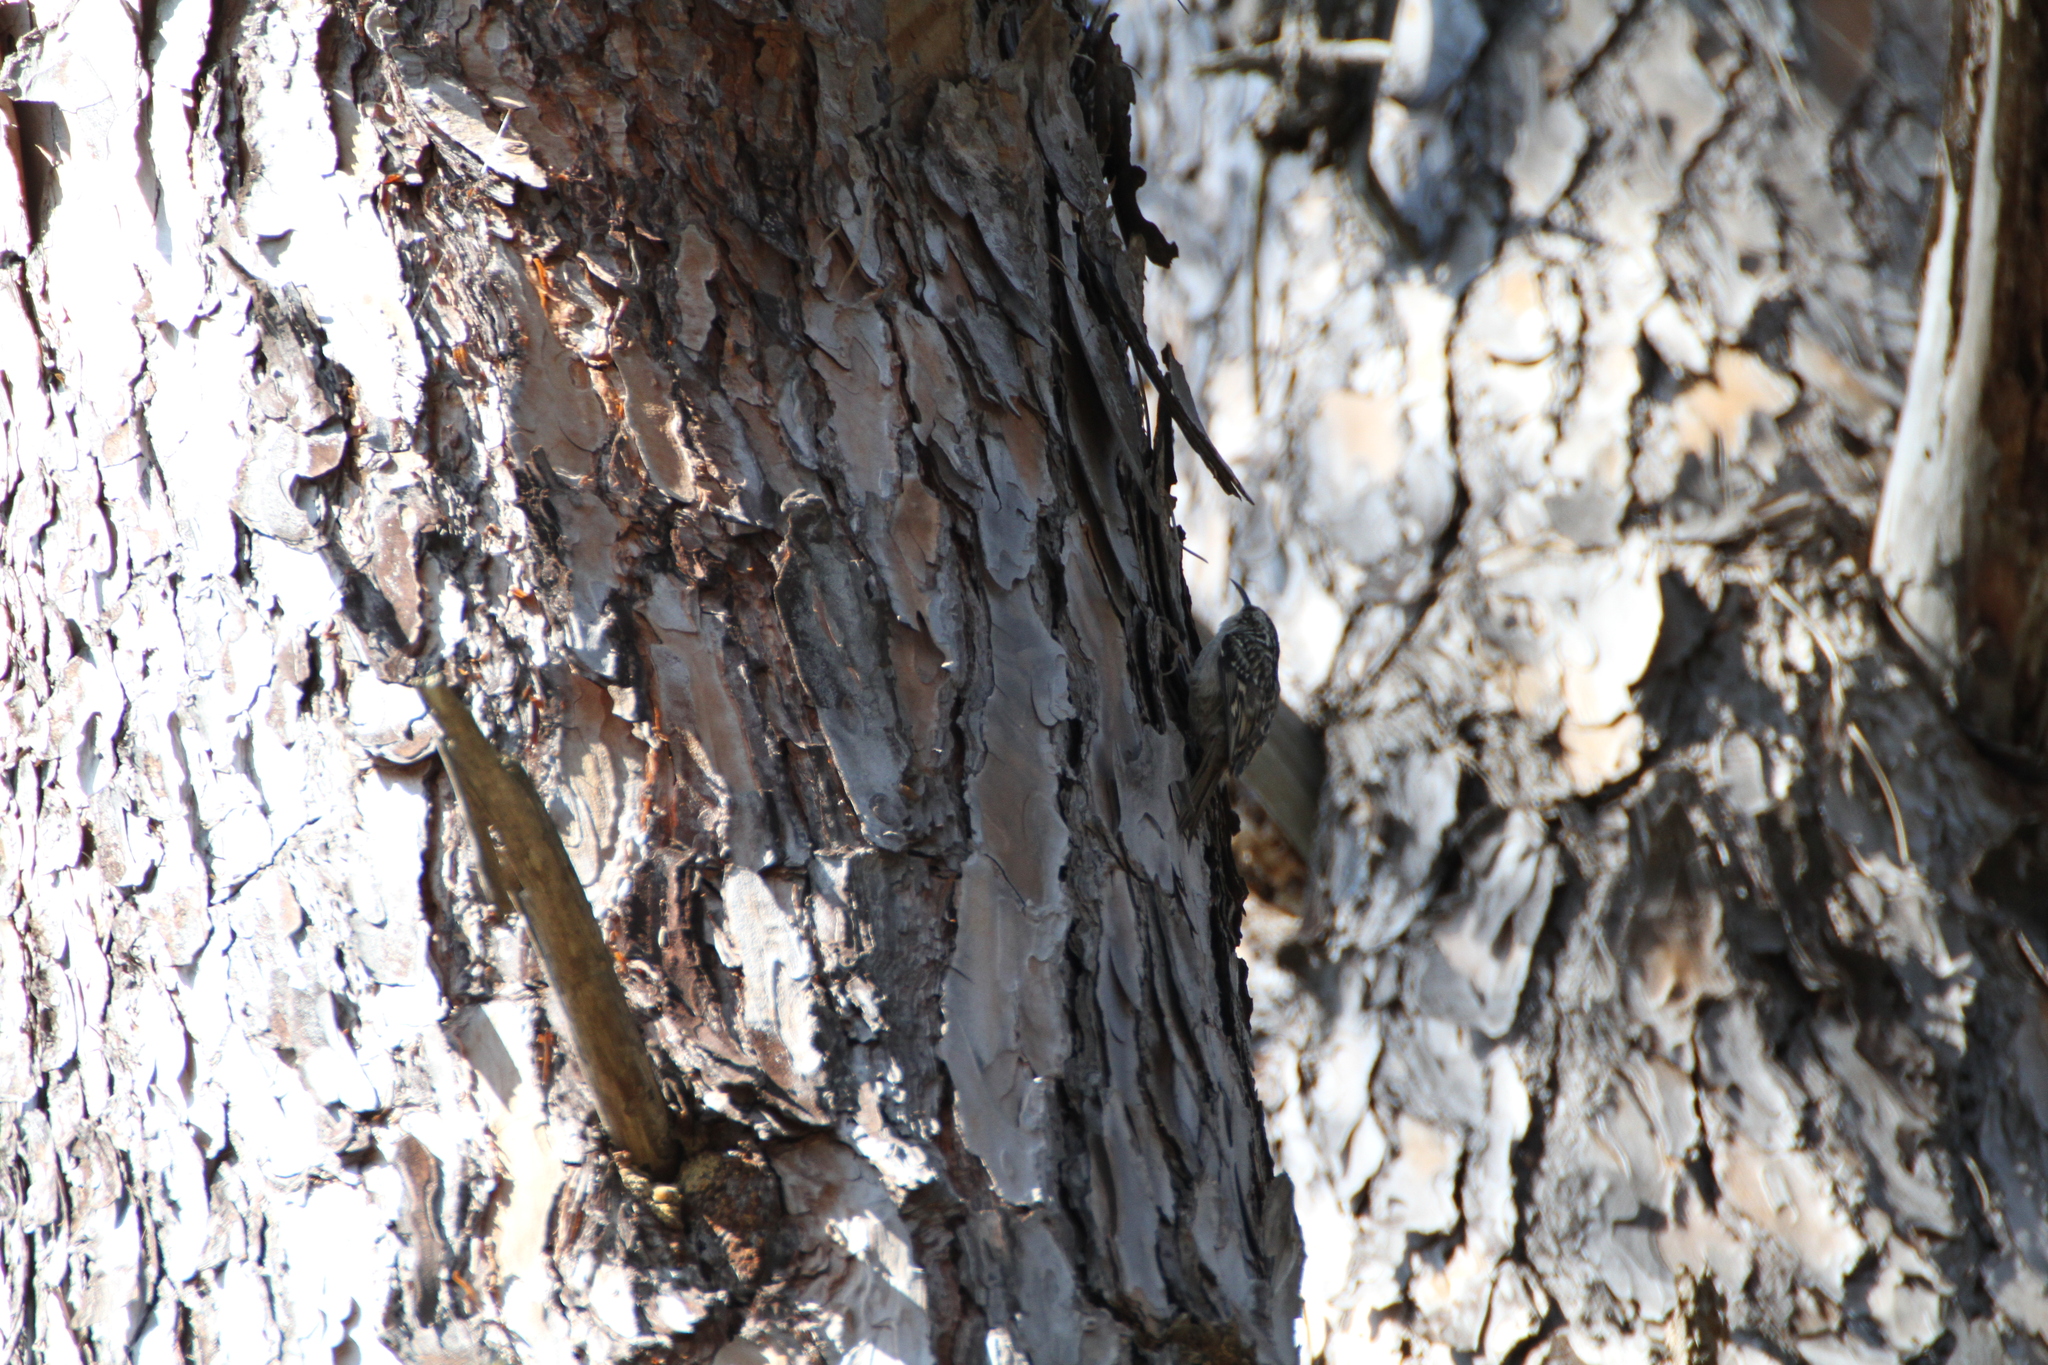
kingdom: Animalia
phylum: Chordata
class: Aves
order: Passeriformes
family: Certhiidae
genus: Certhia
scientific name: Certhia brachydactyla
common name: Short-toed treecreeper
